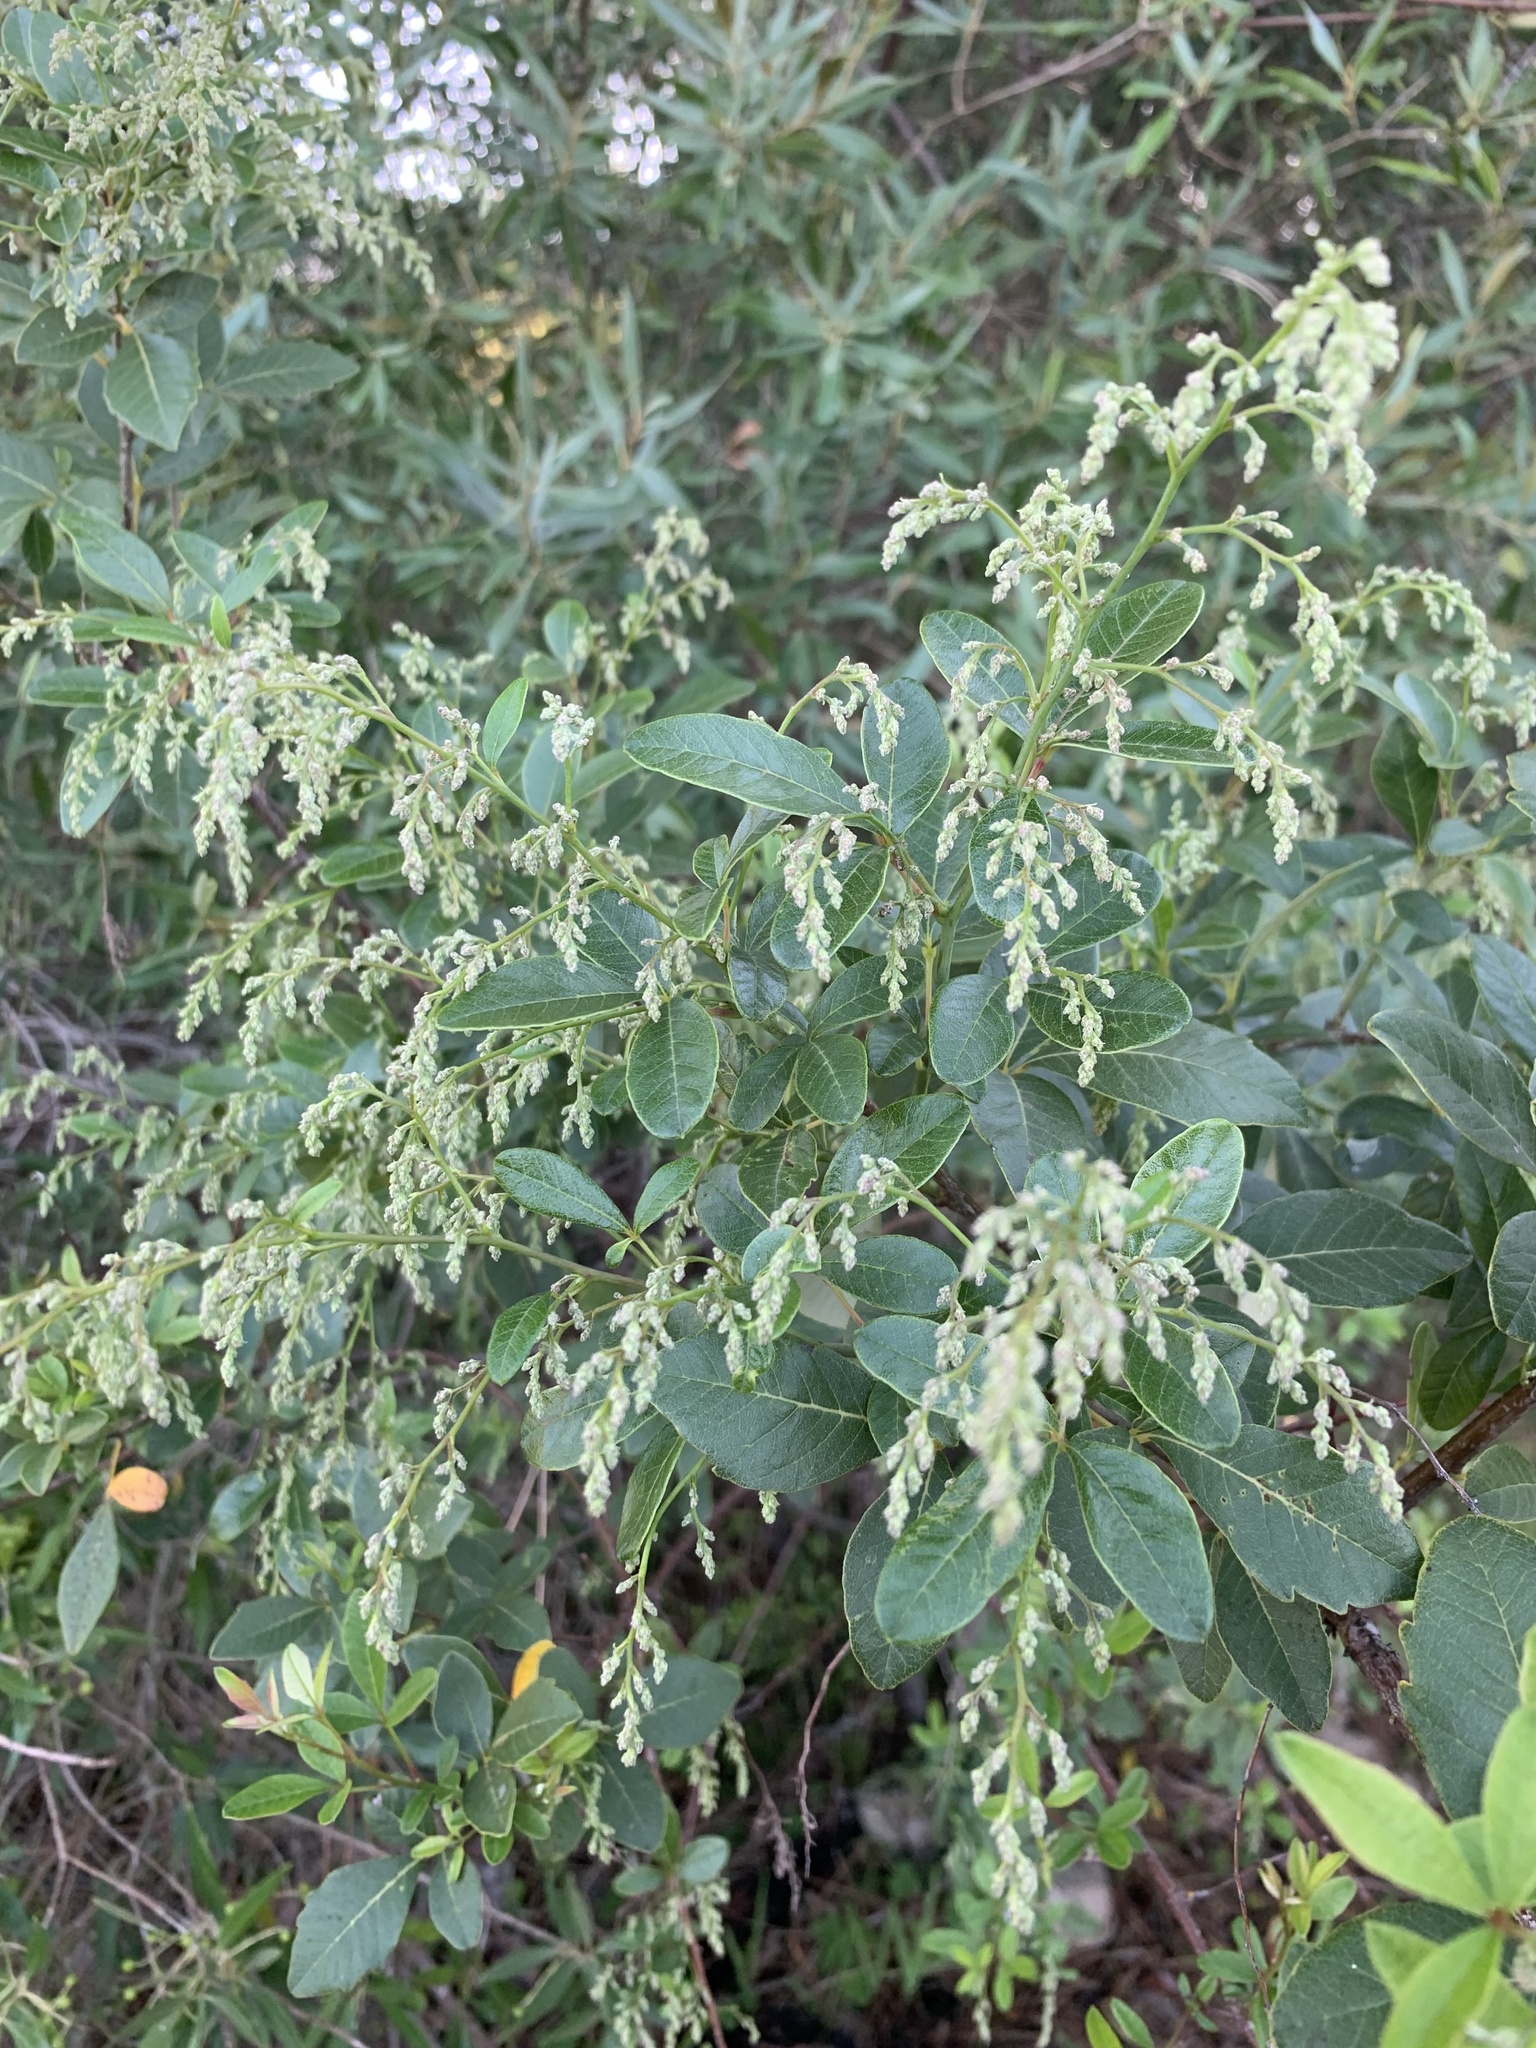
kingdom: Plantae
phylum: Tracheophyta
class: Magnoliopsida
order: Sapindales
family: Anacardiaceae
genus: Searsia
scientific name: Searsia tomentosa
